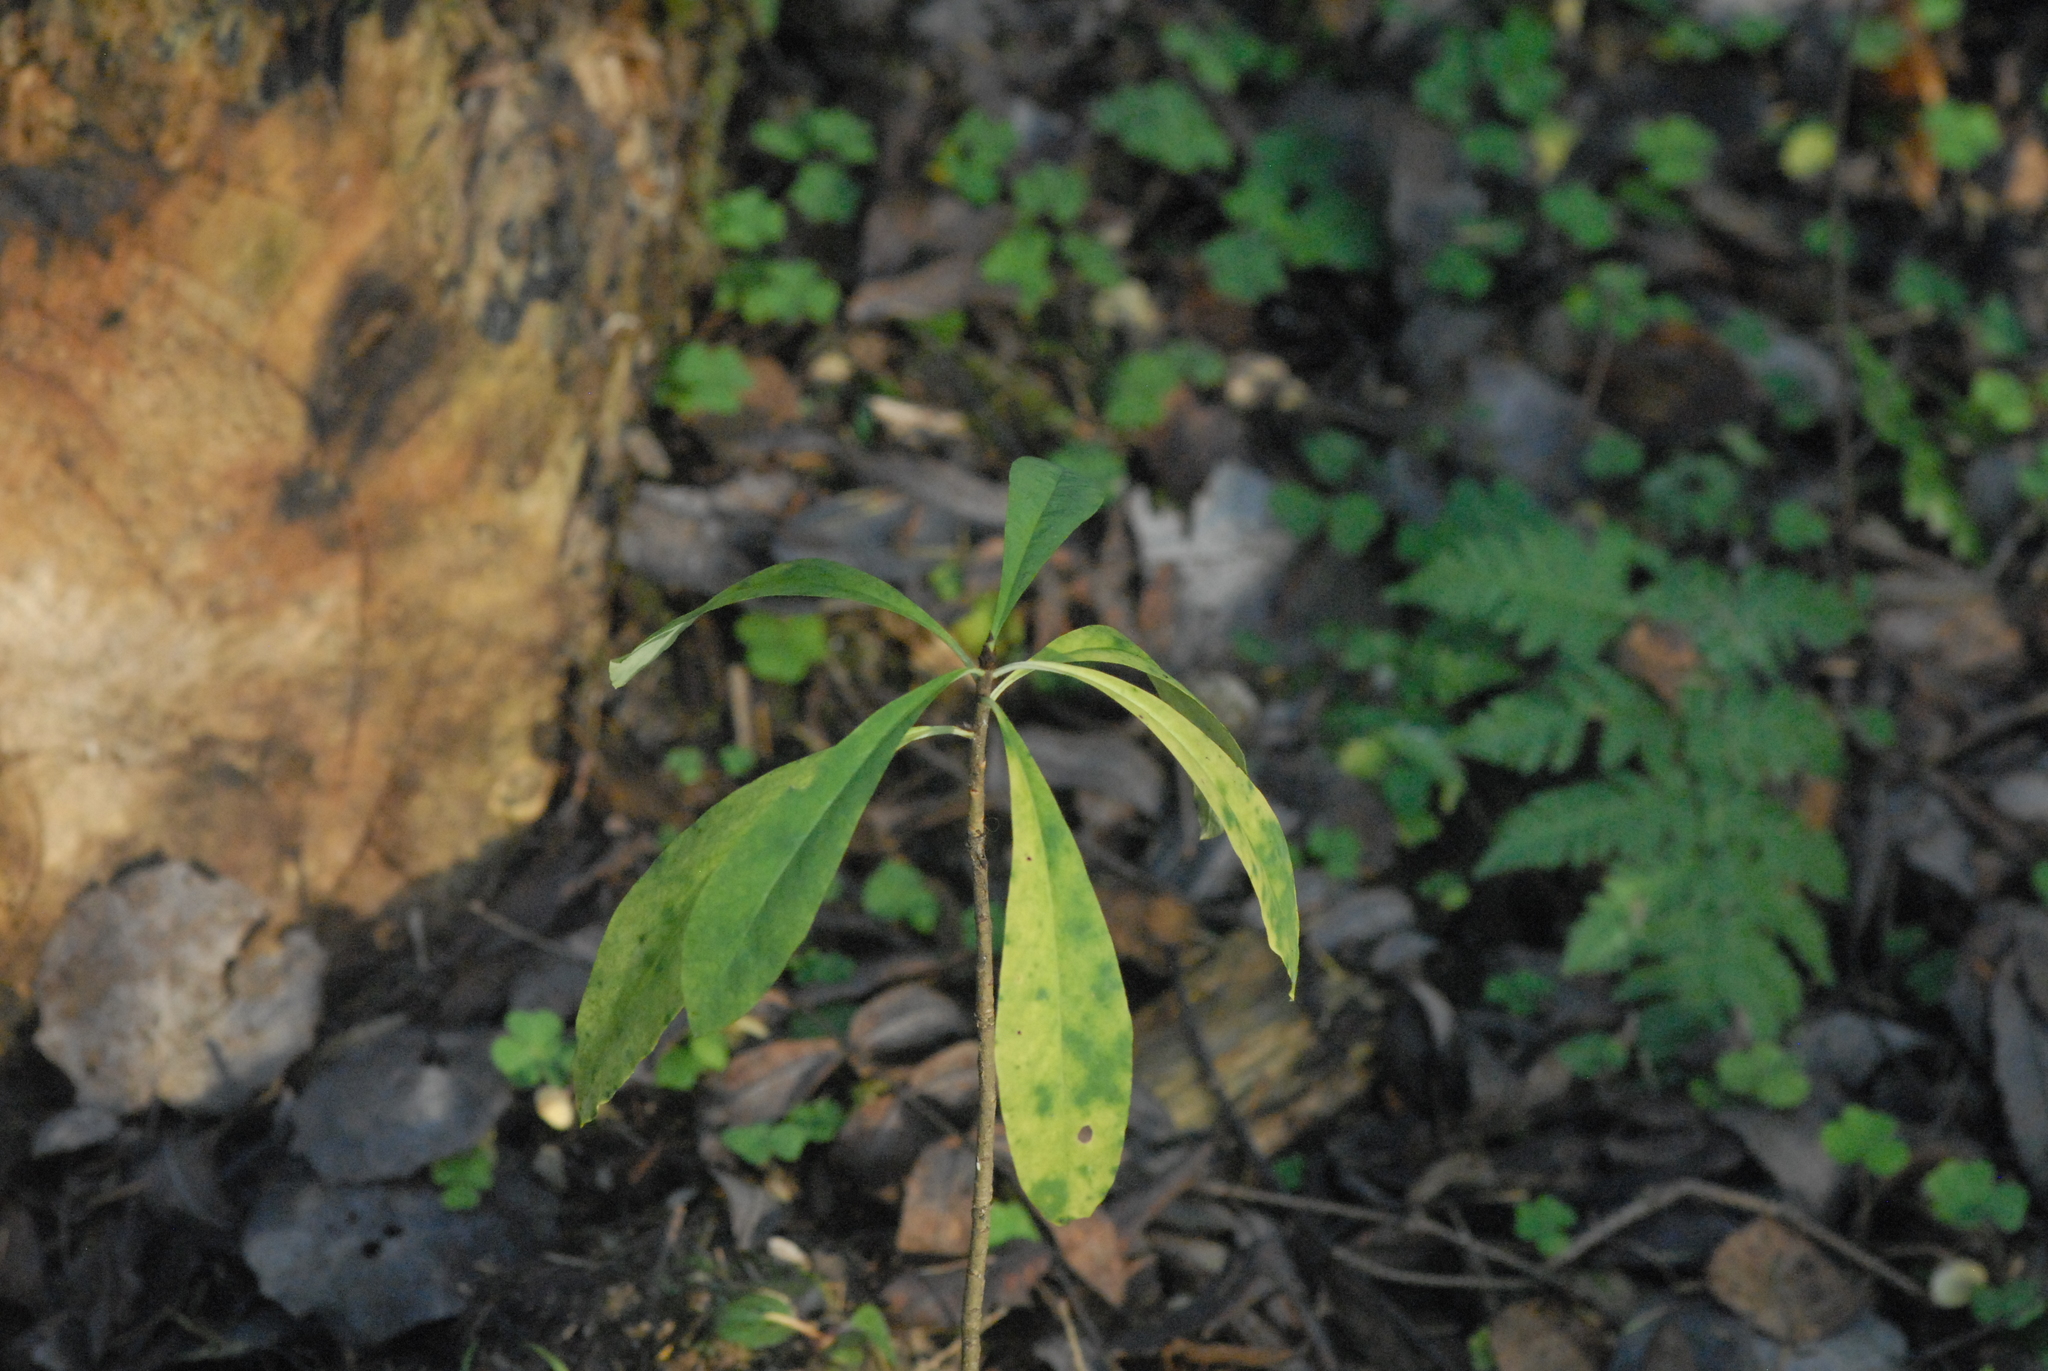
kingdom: Plantae
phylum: Tracheophyta
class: Magnoliopsida
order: Malvales
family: Thymelaeaceae
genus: Daphne
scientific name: Daphne mezereum
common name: Mezereon
